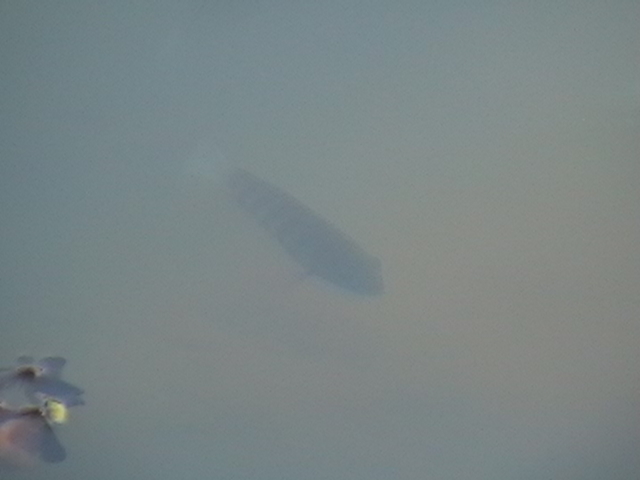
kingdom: Animalia
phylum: Chordata
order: Perciformes
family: Cichlidae
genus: Etroplus
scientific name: Etroplus suratensis
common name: Green chromide
